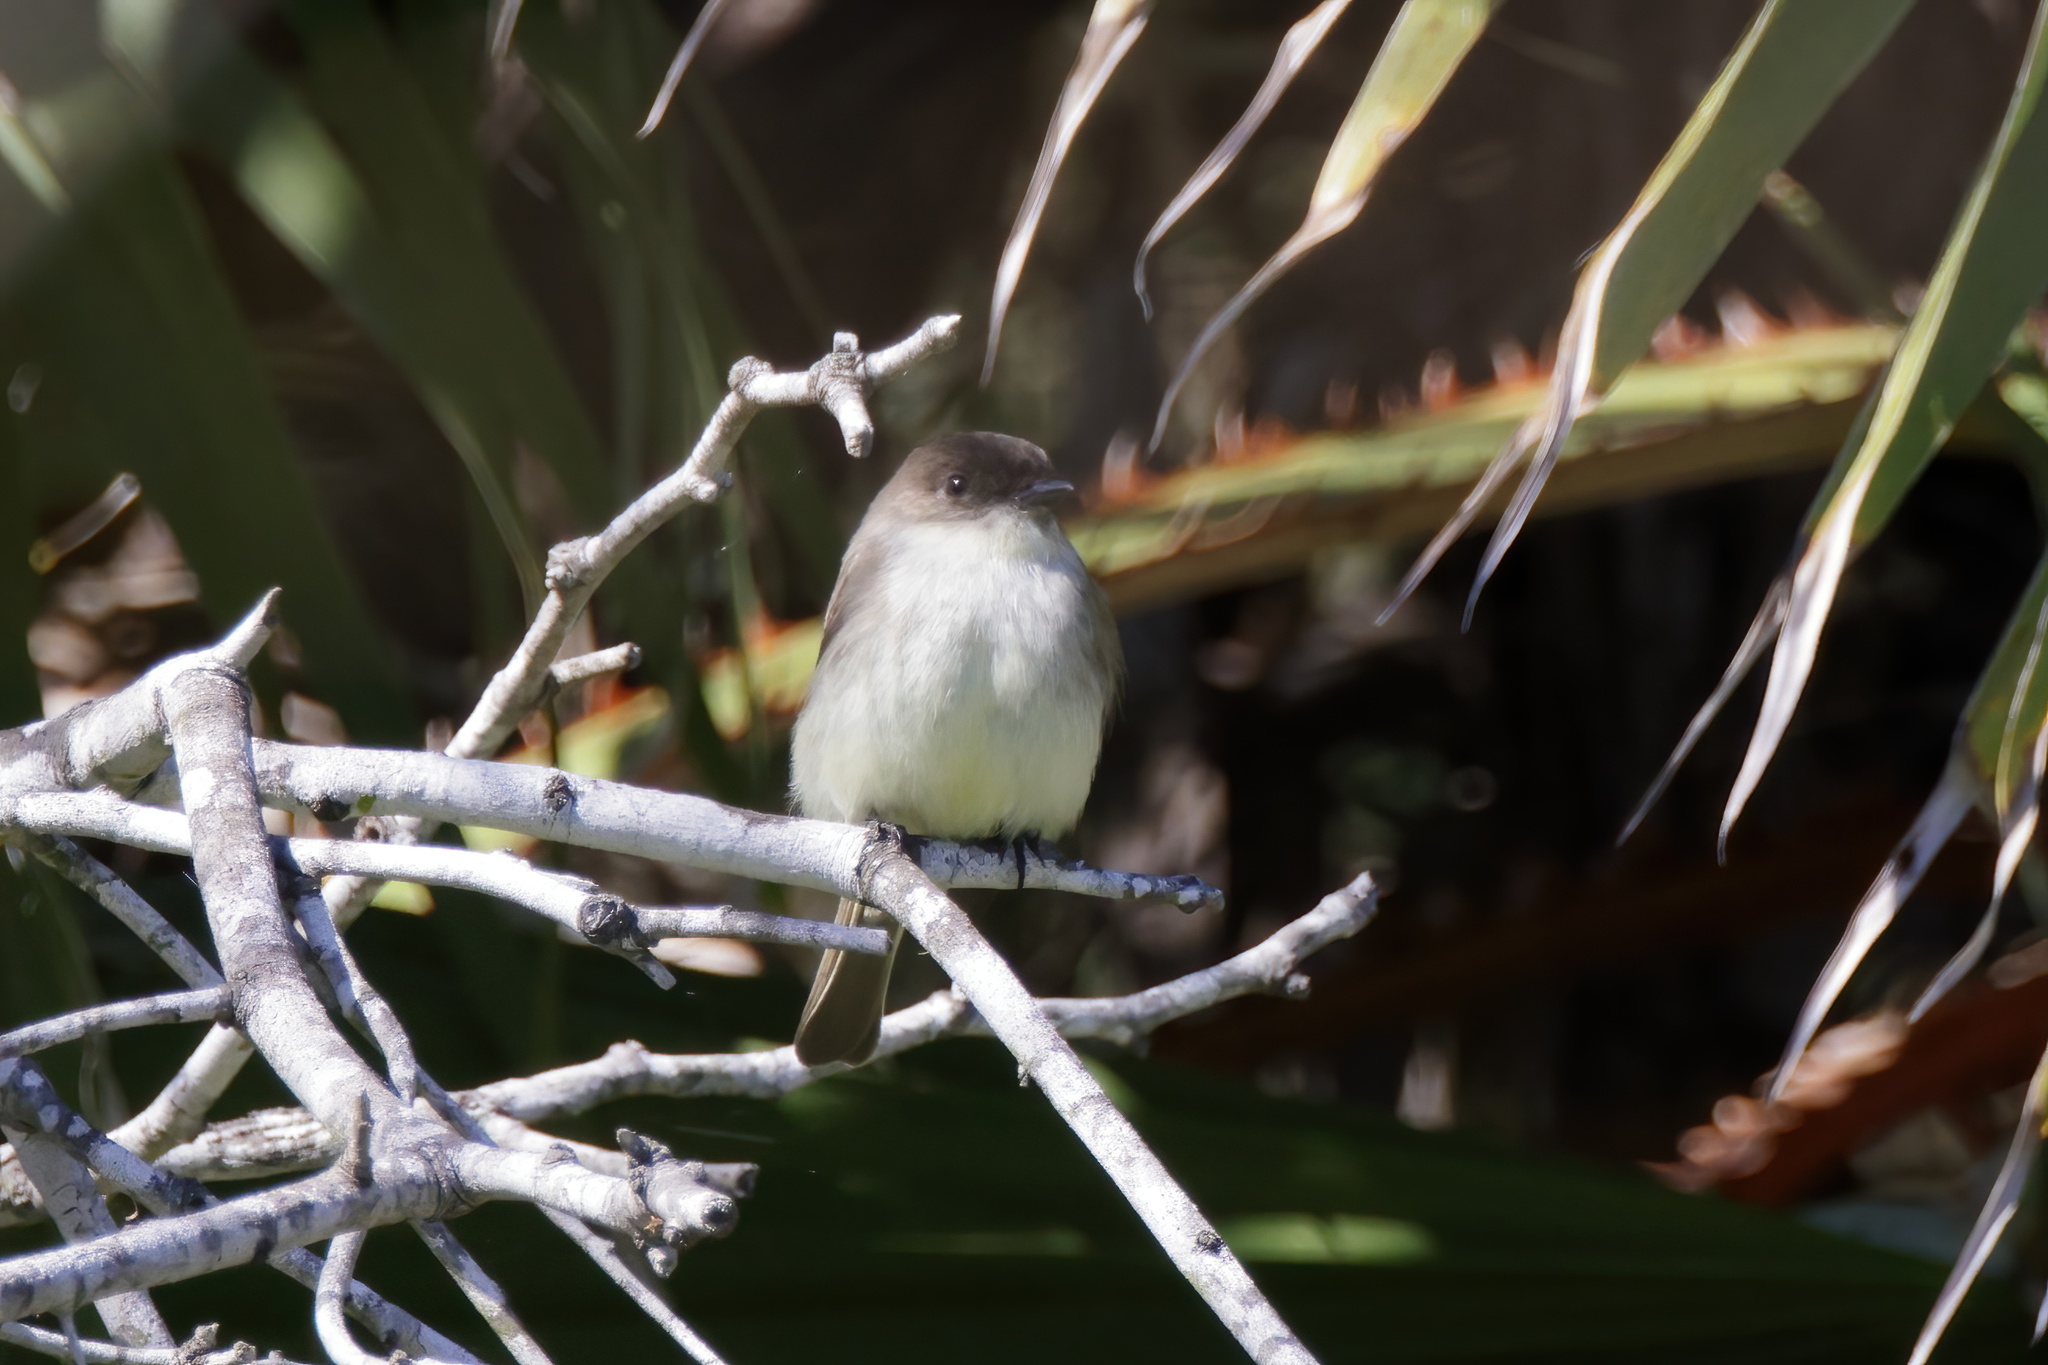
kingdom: Animalia
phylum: Chordata
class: Aves
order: Passeriformes
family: Tyrannidae
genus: Sayornis
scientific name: Sayornis phoebe
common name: Eastern phoebe
